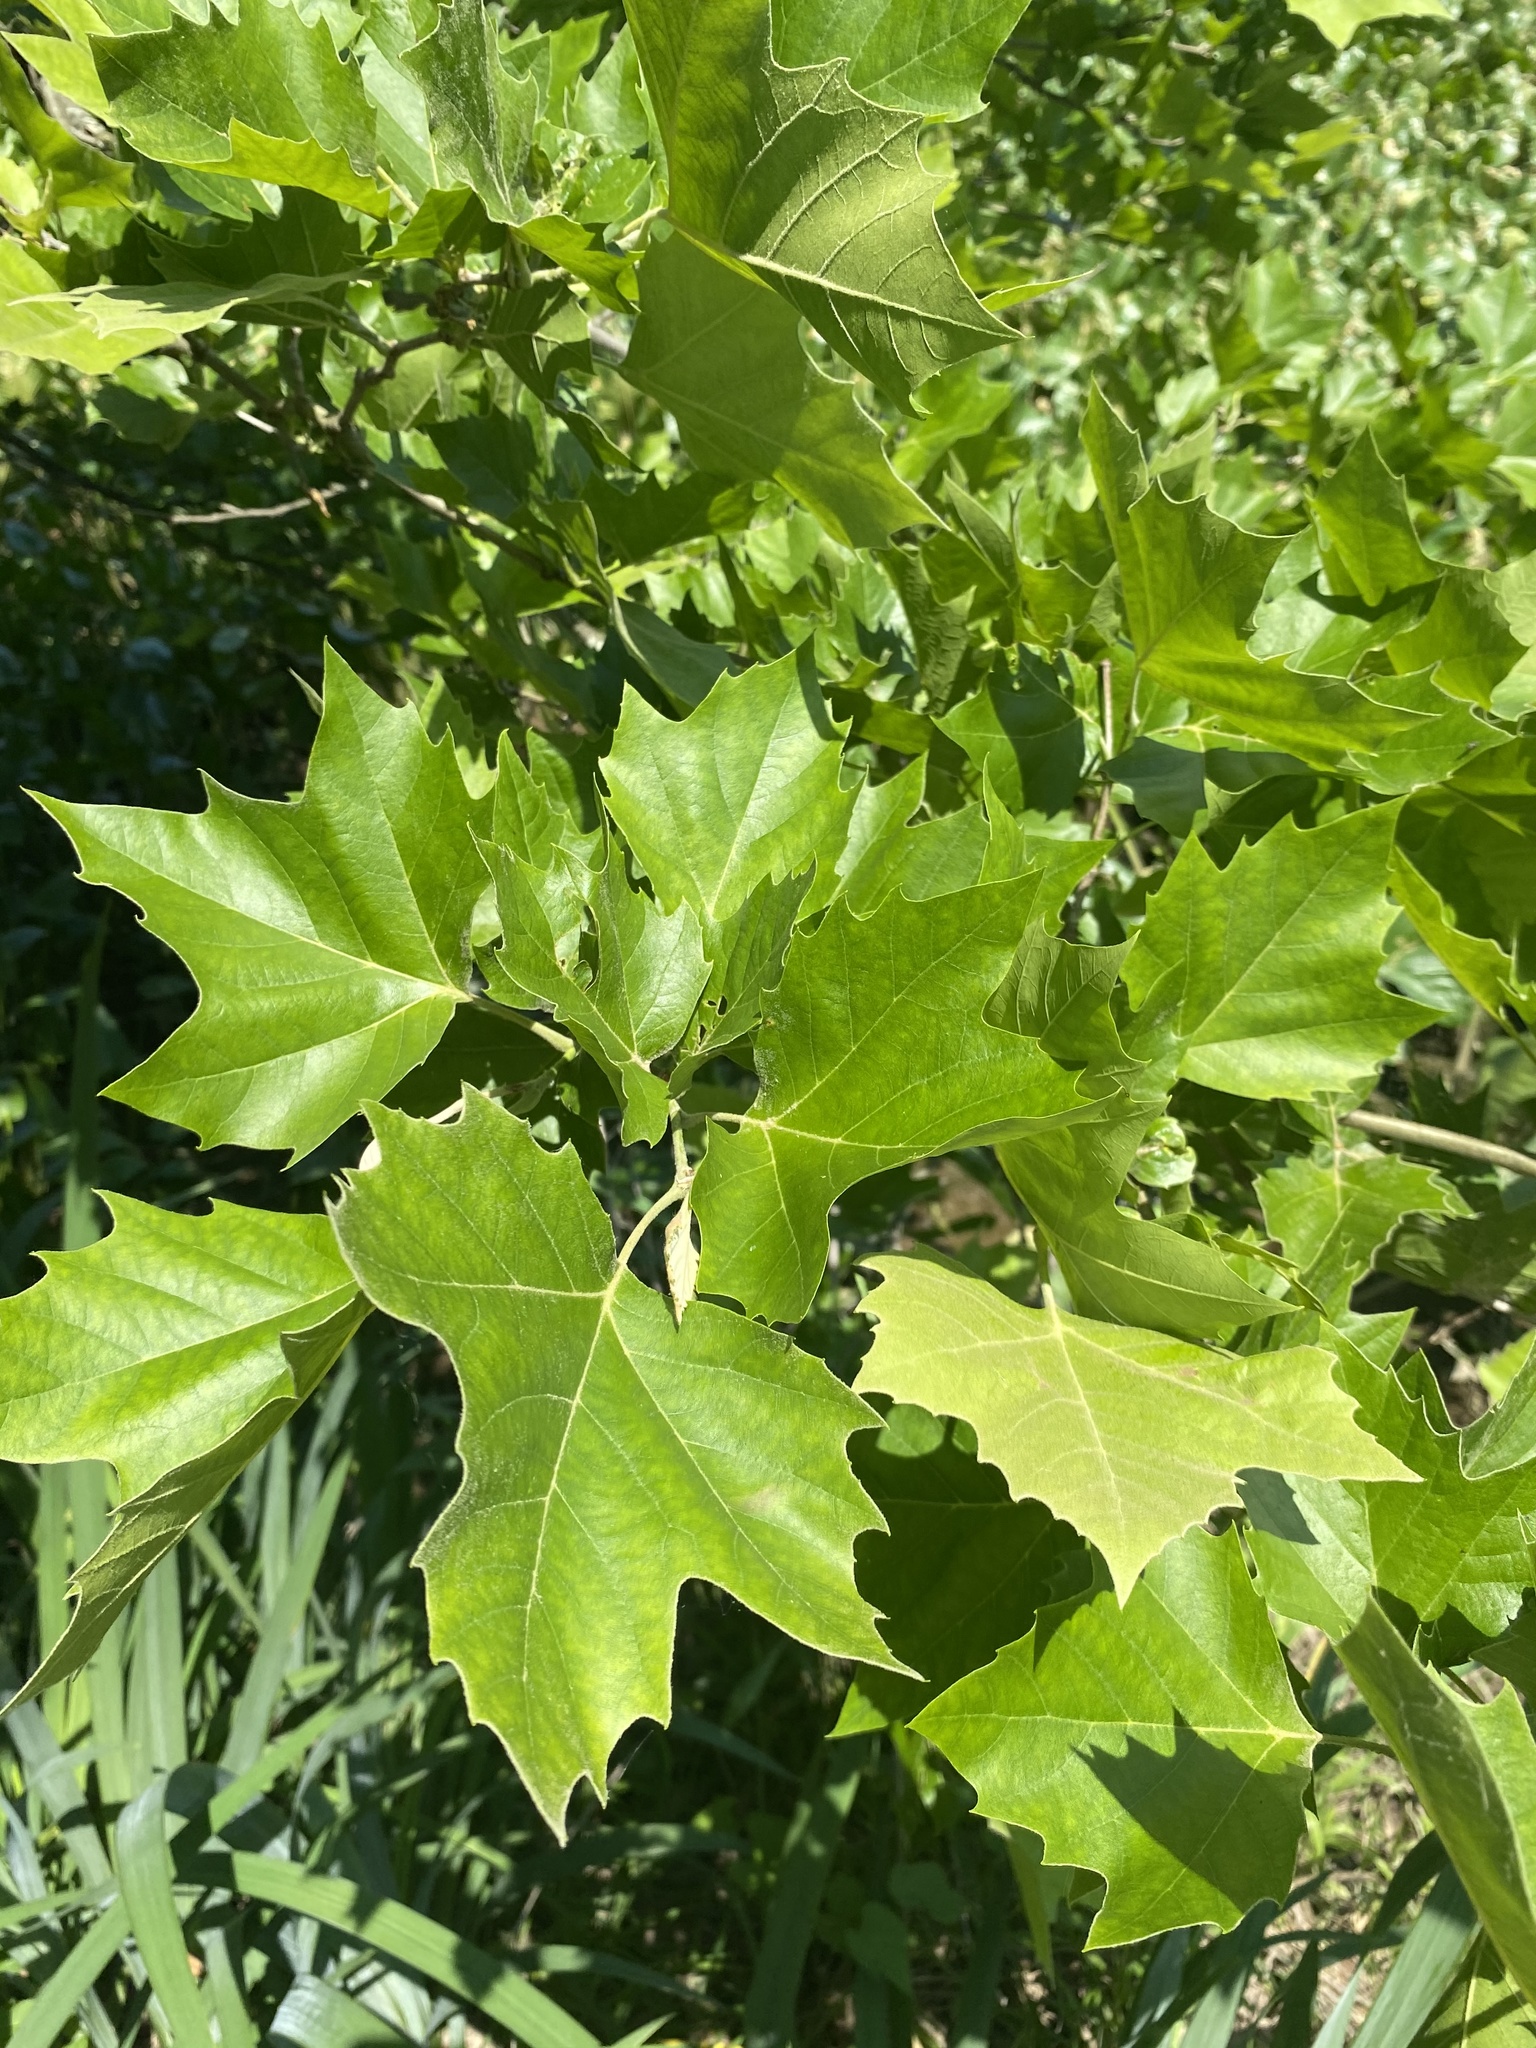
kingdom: Plantae
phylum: Tracheophyta
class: Magnoliopsida
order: Proteales
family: Platanaceae
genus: Platanus
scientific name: Platanus occidentalis
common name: American sycamore
